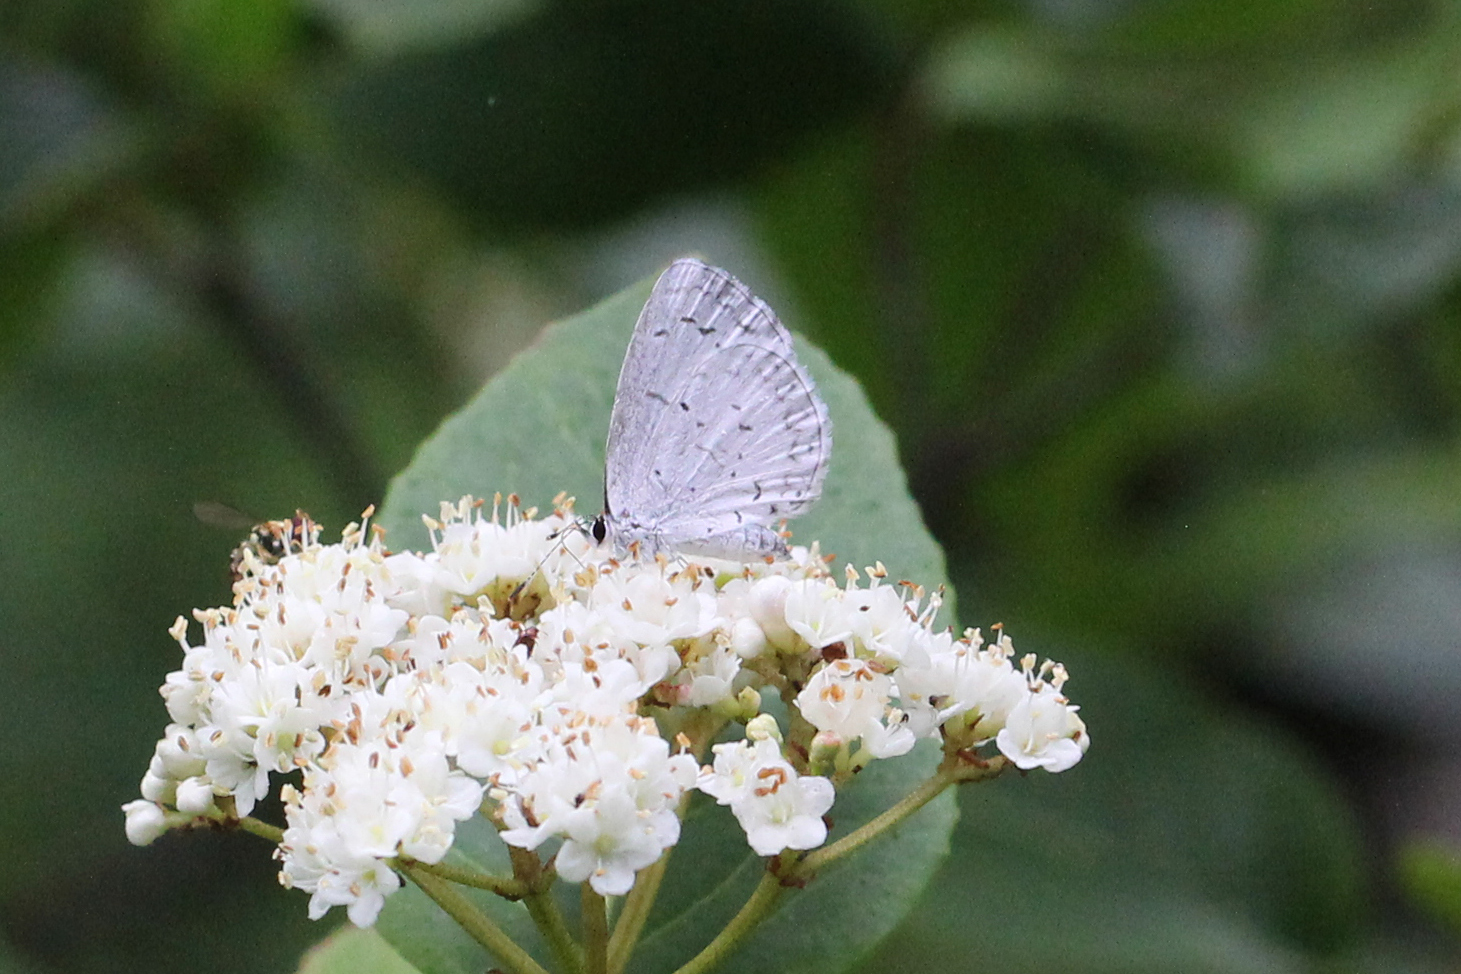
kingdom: Animalia
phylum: Arthropoda
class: Insecta
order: Lepidoptera
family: Lycaenidae
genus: Celastrina
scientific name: Celastrina neglectamajor
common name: Appalachian azure
